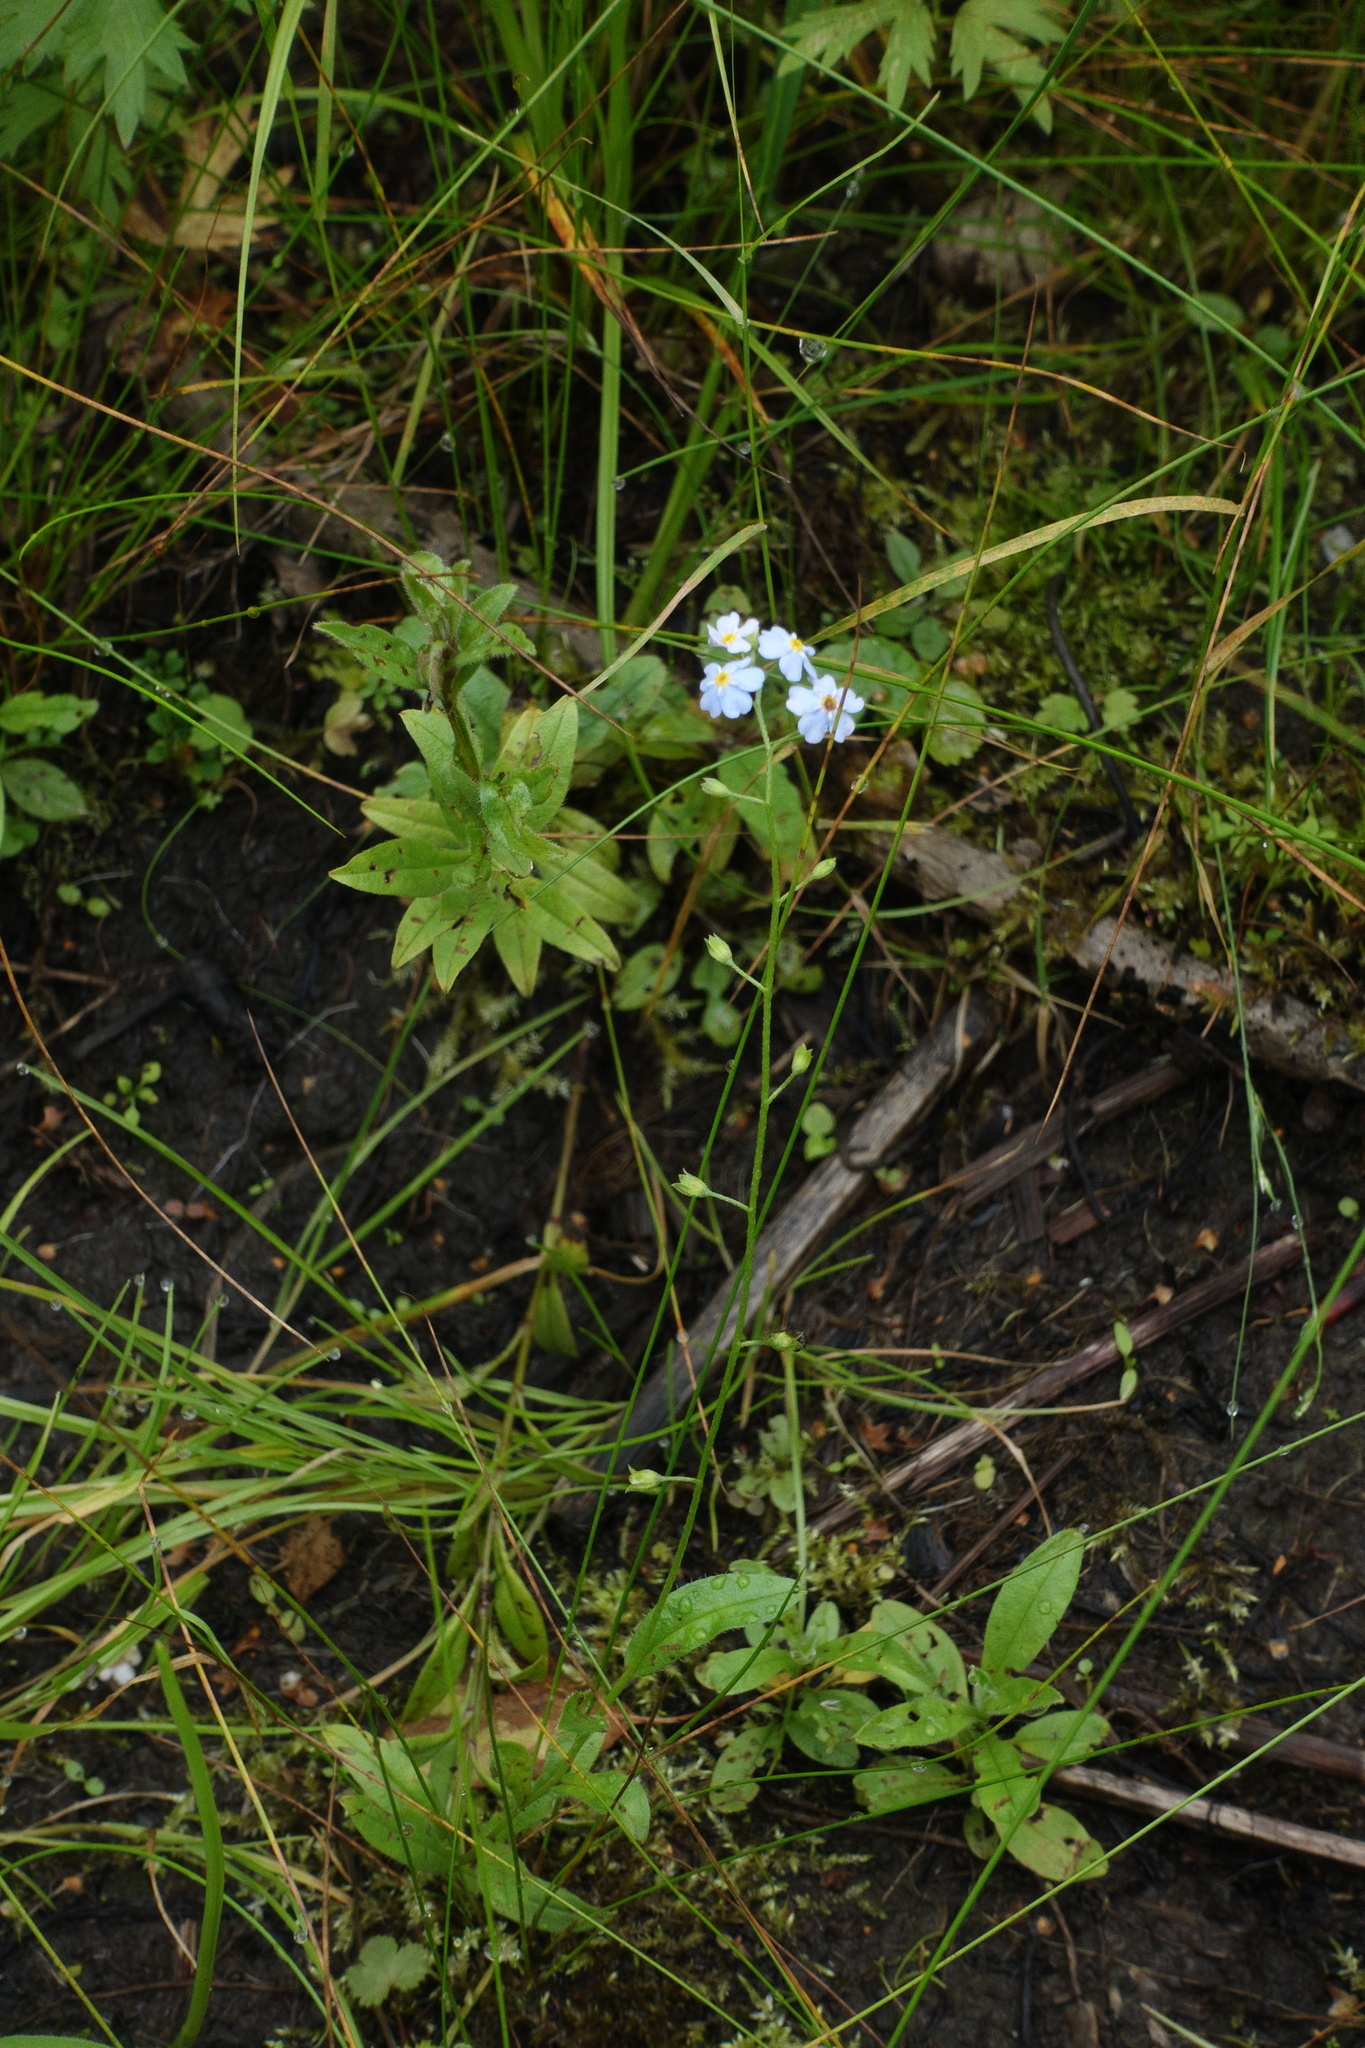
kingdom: Plantae
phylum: Tracheophyta
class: Magnoliopsida
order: Boraginales
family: Boraginaceae
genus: Myosotis
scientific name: Myosotis scorpioides
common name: Water forget-me-not
